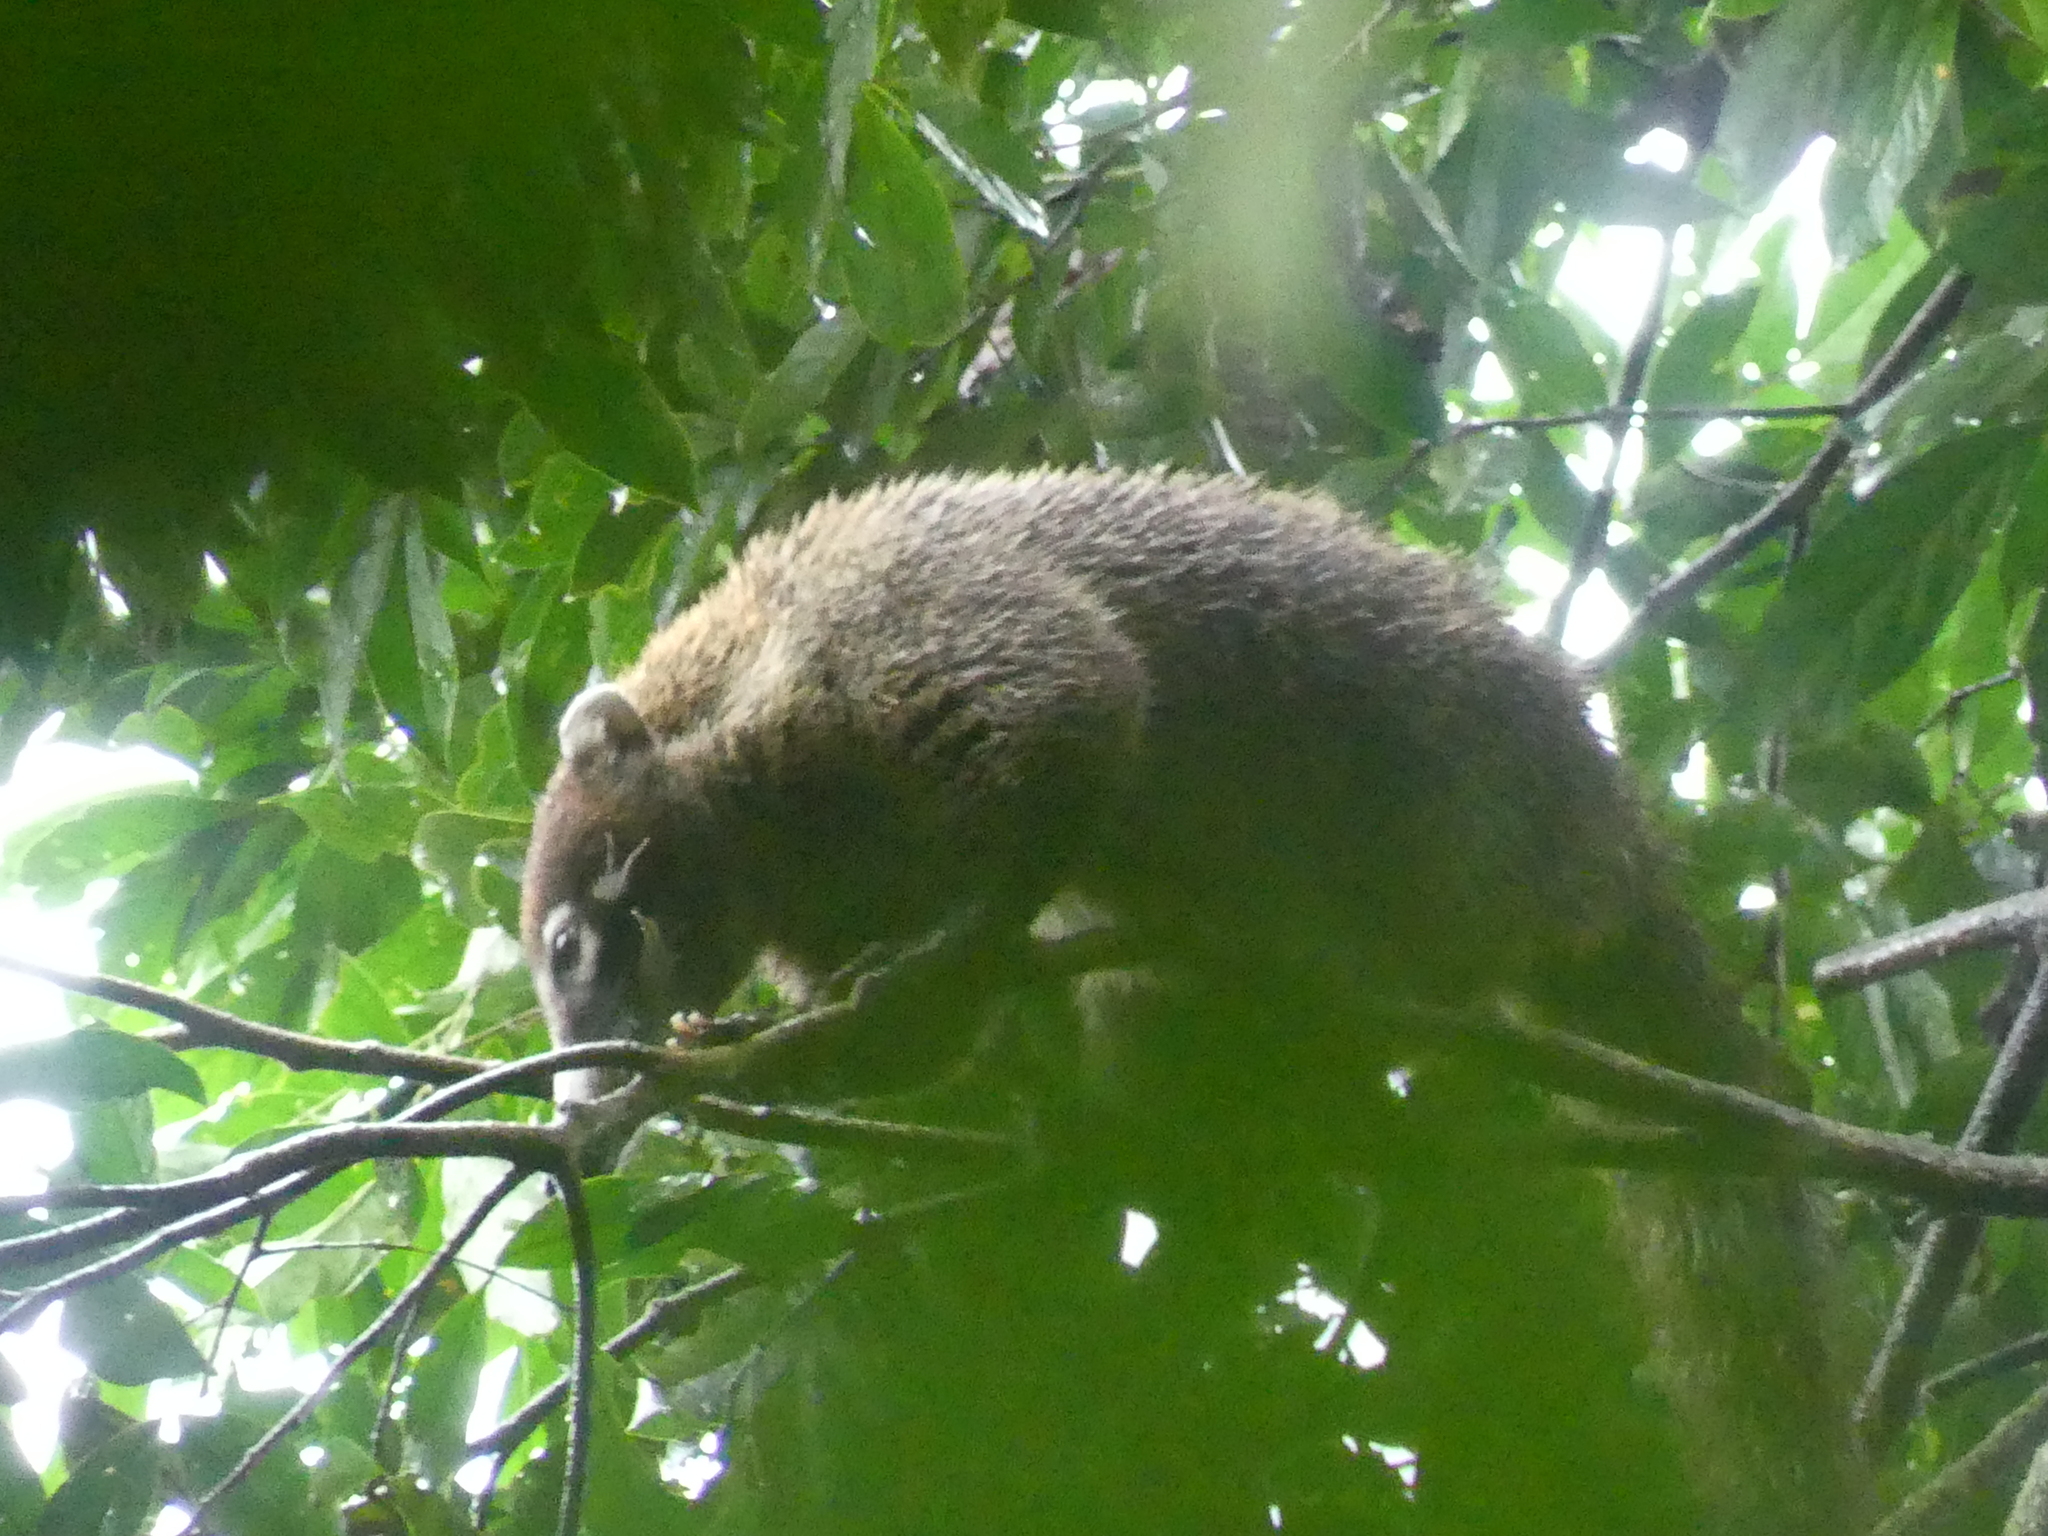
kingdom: Animalia
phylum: Chordata
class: Mammalia
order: Carnivora
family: Procyonidae
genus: Nasua
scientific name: Nasua narica
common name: White-nosed coati
